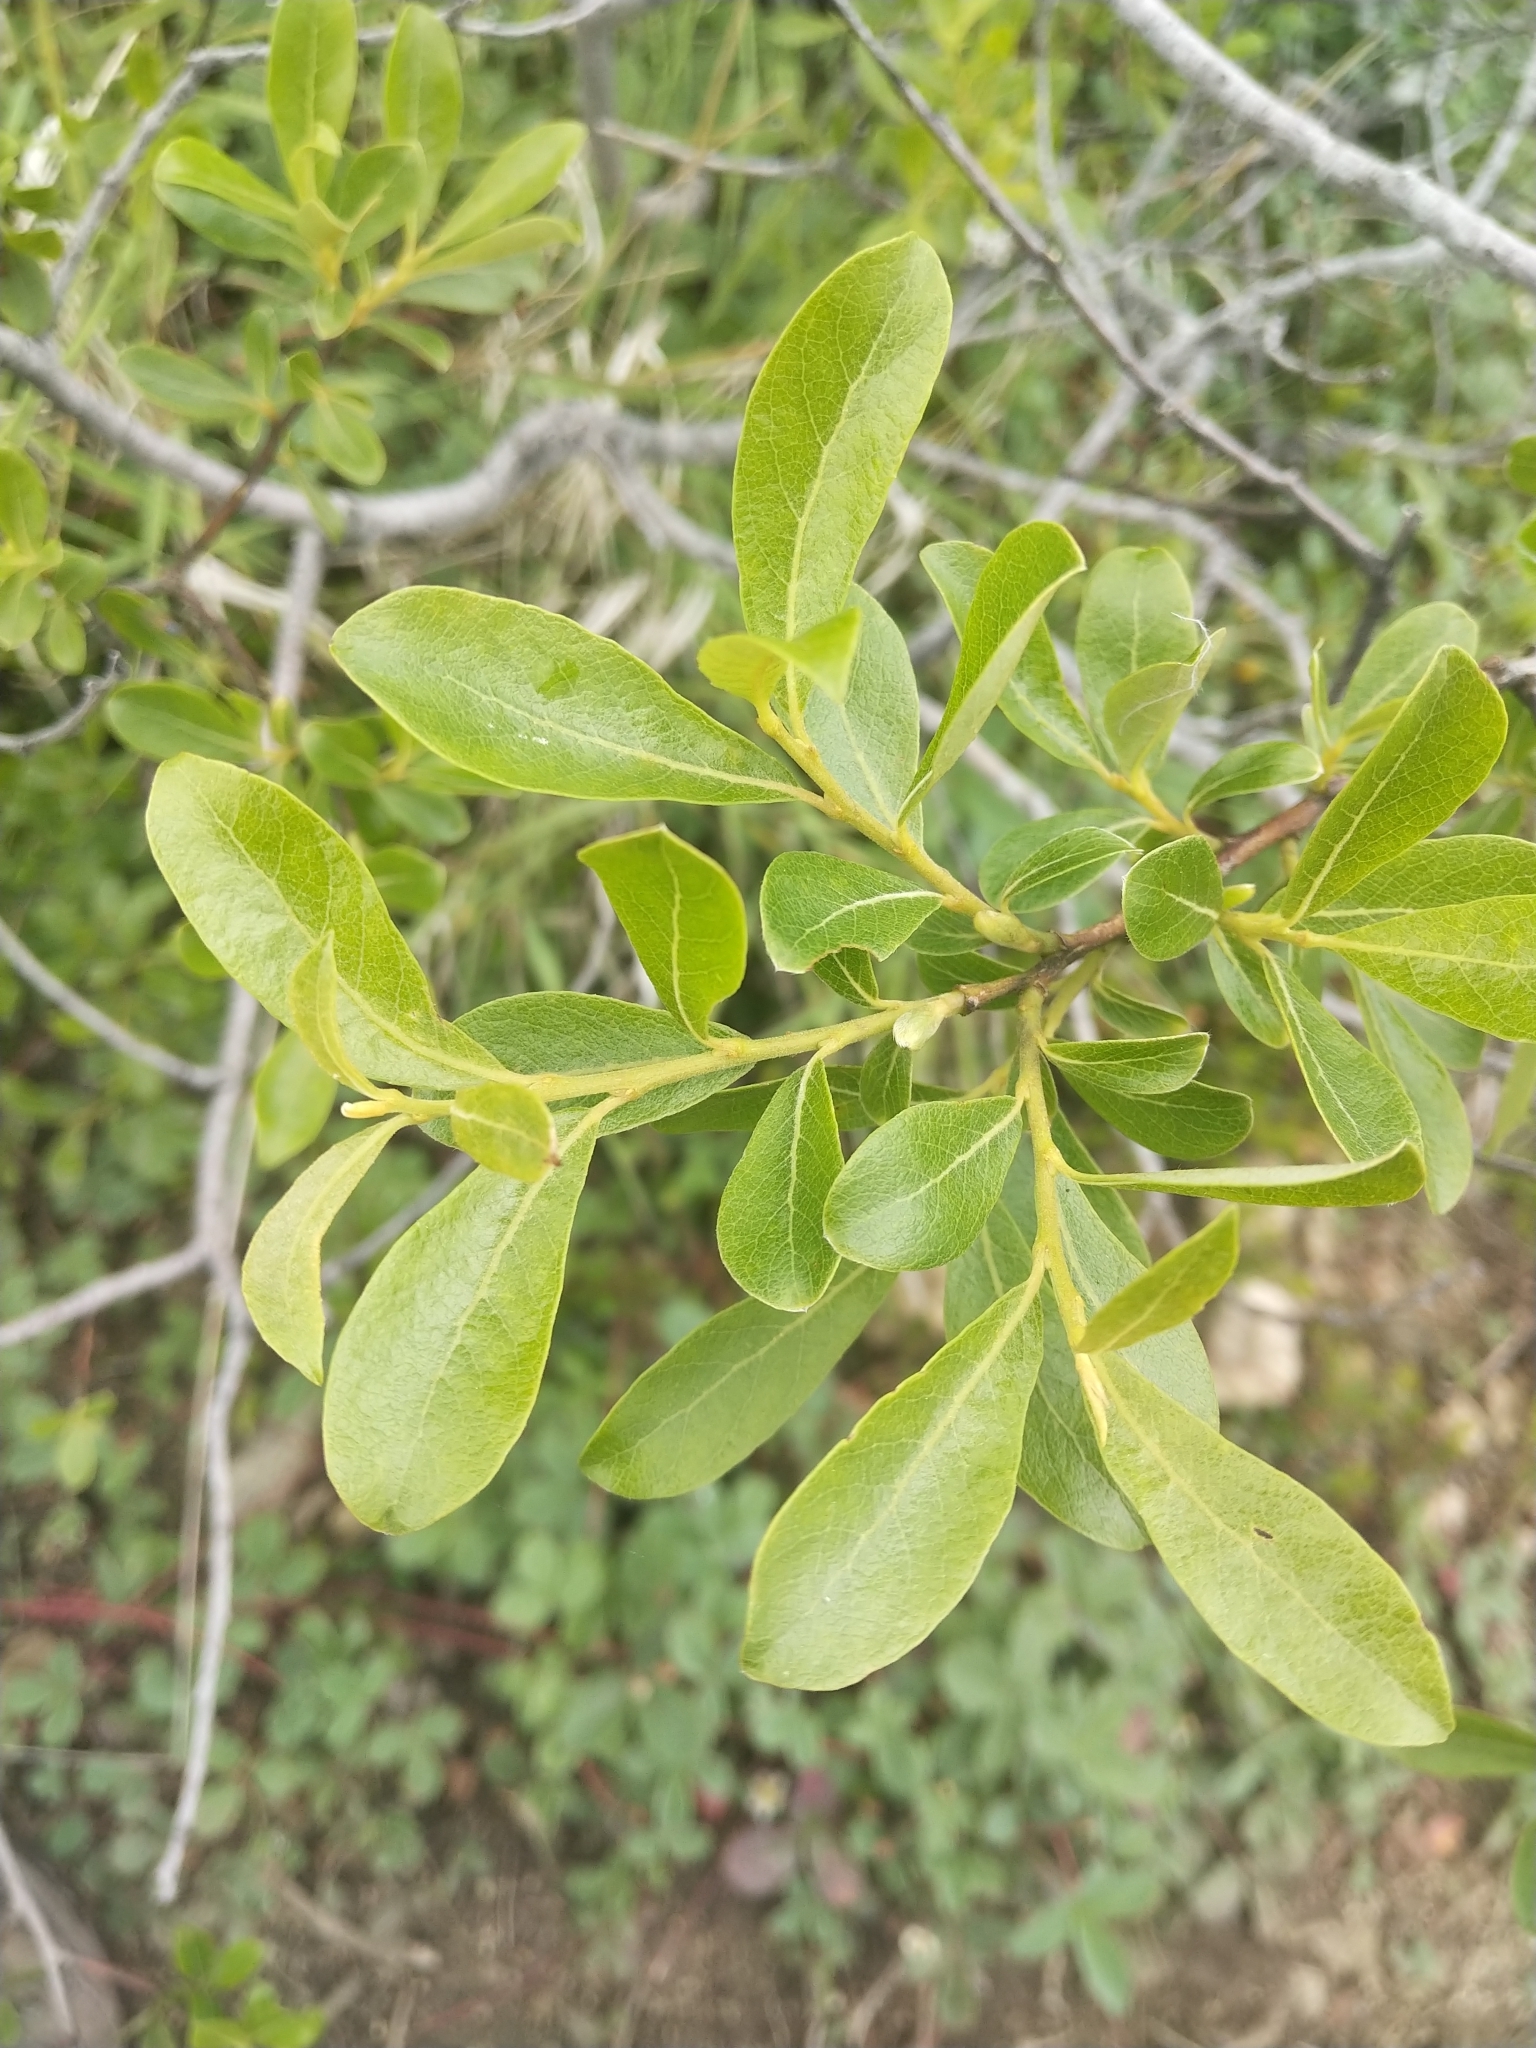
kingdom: Plantae
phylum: Tracheophyta
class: Magnoliopsida
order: Malpighiales
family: Salicaceae
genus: Salix
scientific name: Salix scouleriana
